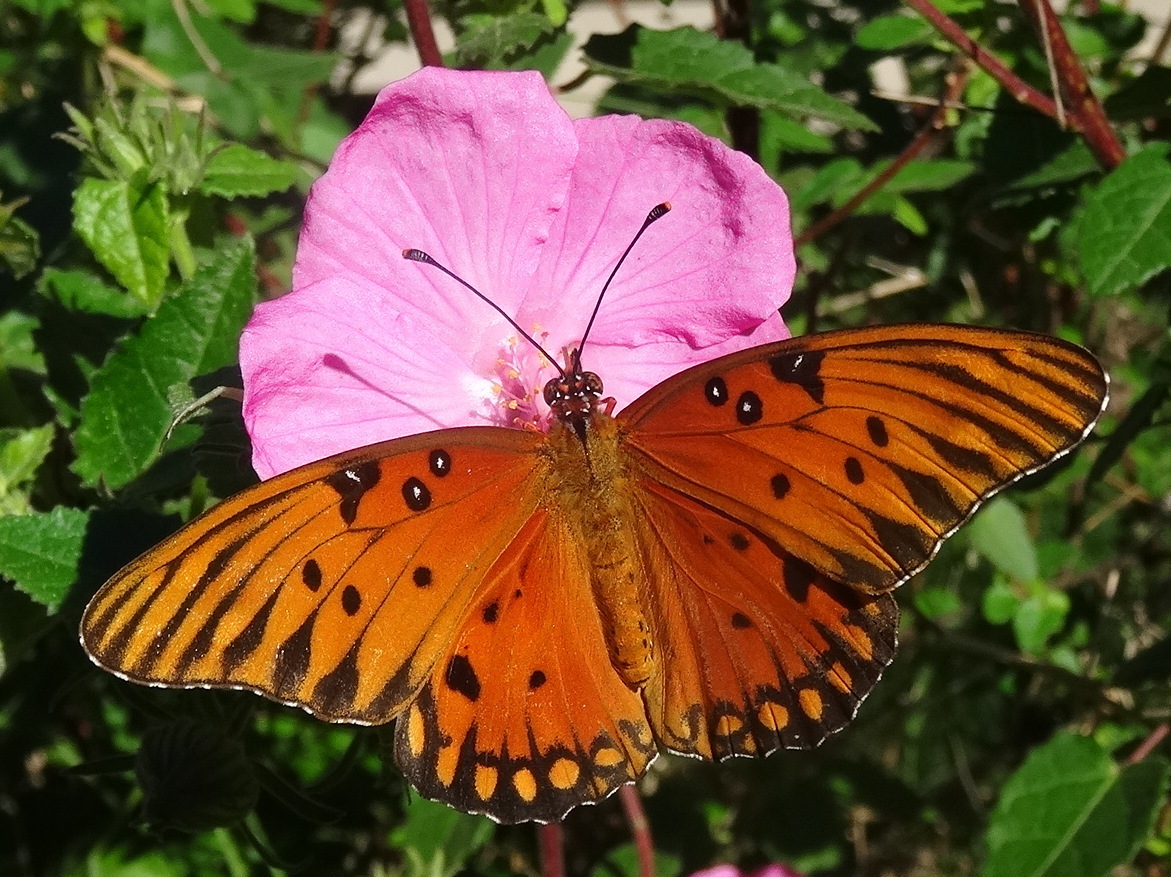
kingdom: Animalia
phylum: Arthropoda
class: Insecta
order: Lepidoptera
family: Nymphalidae
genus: Dione
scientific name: Dione vanillae
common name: Gulf fritillary
